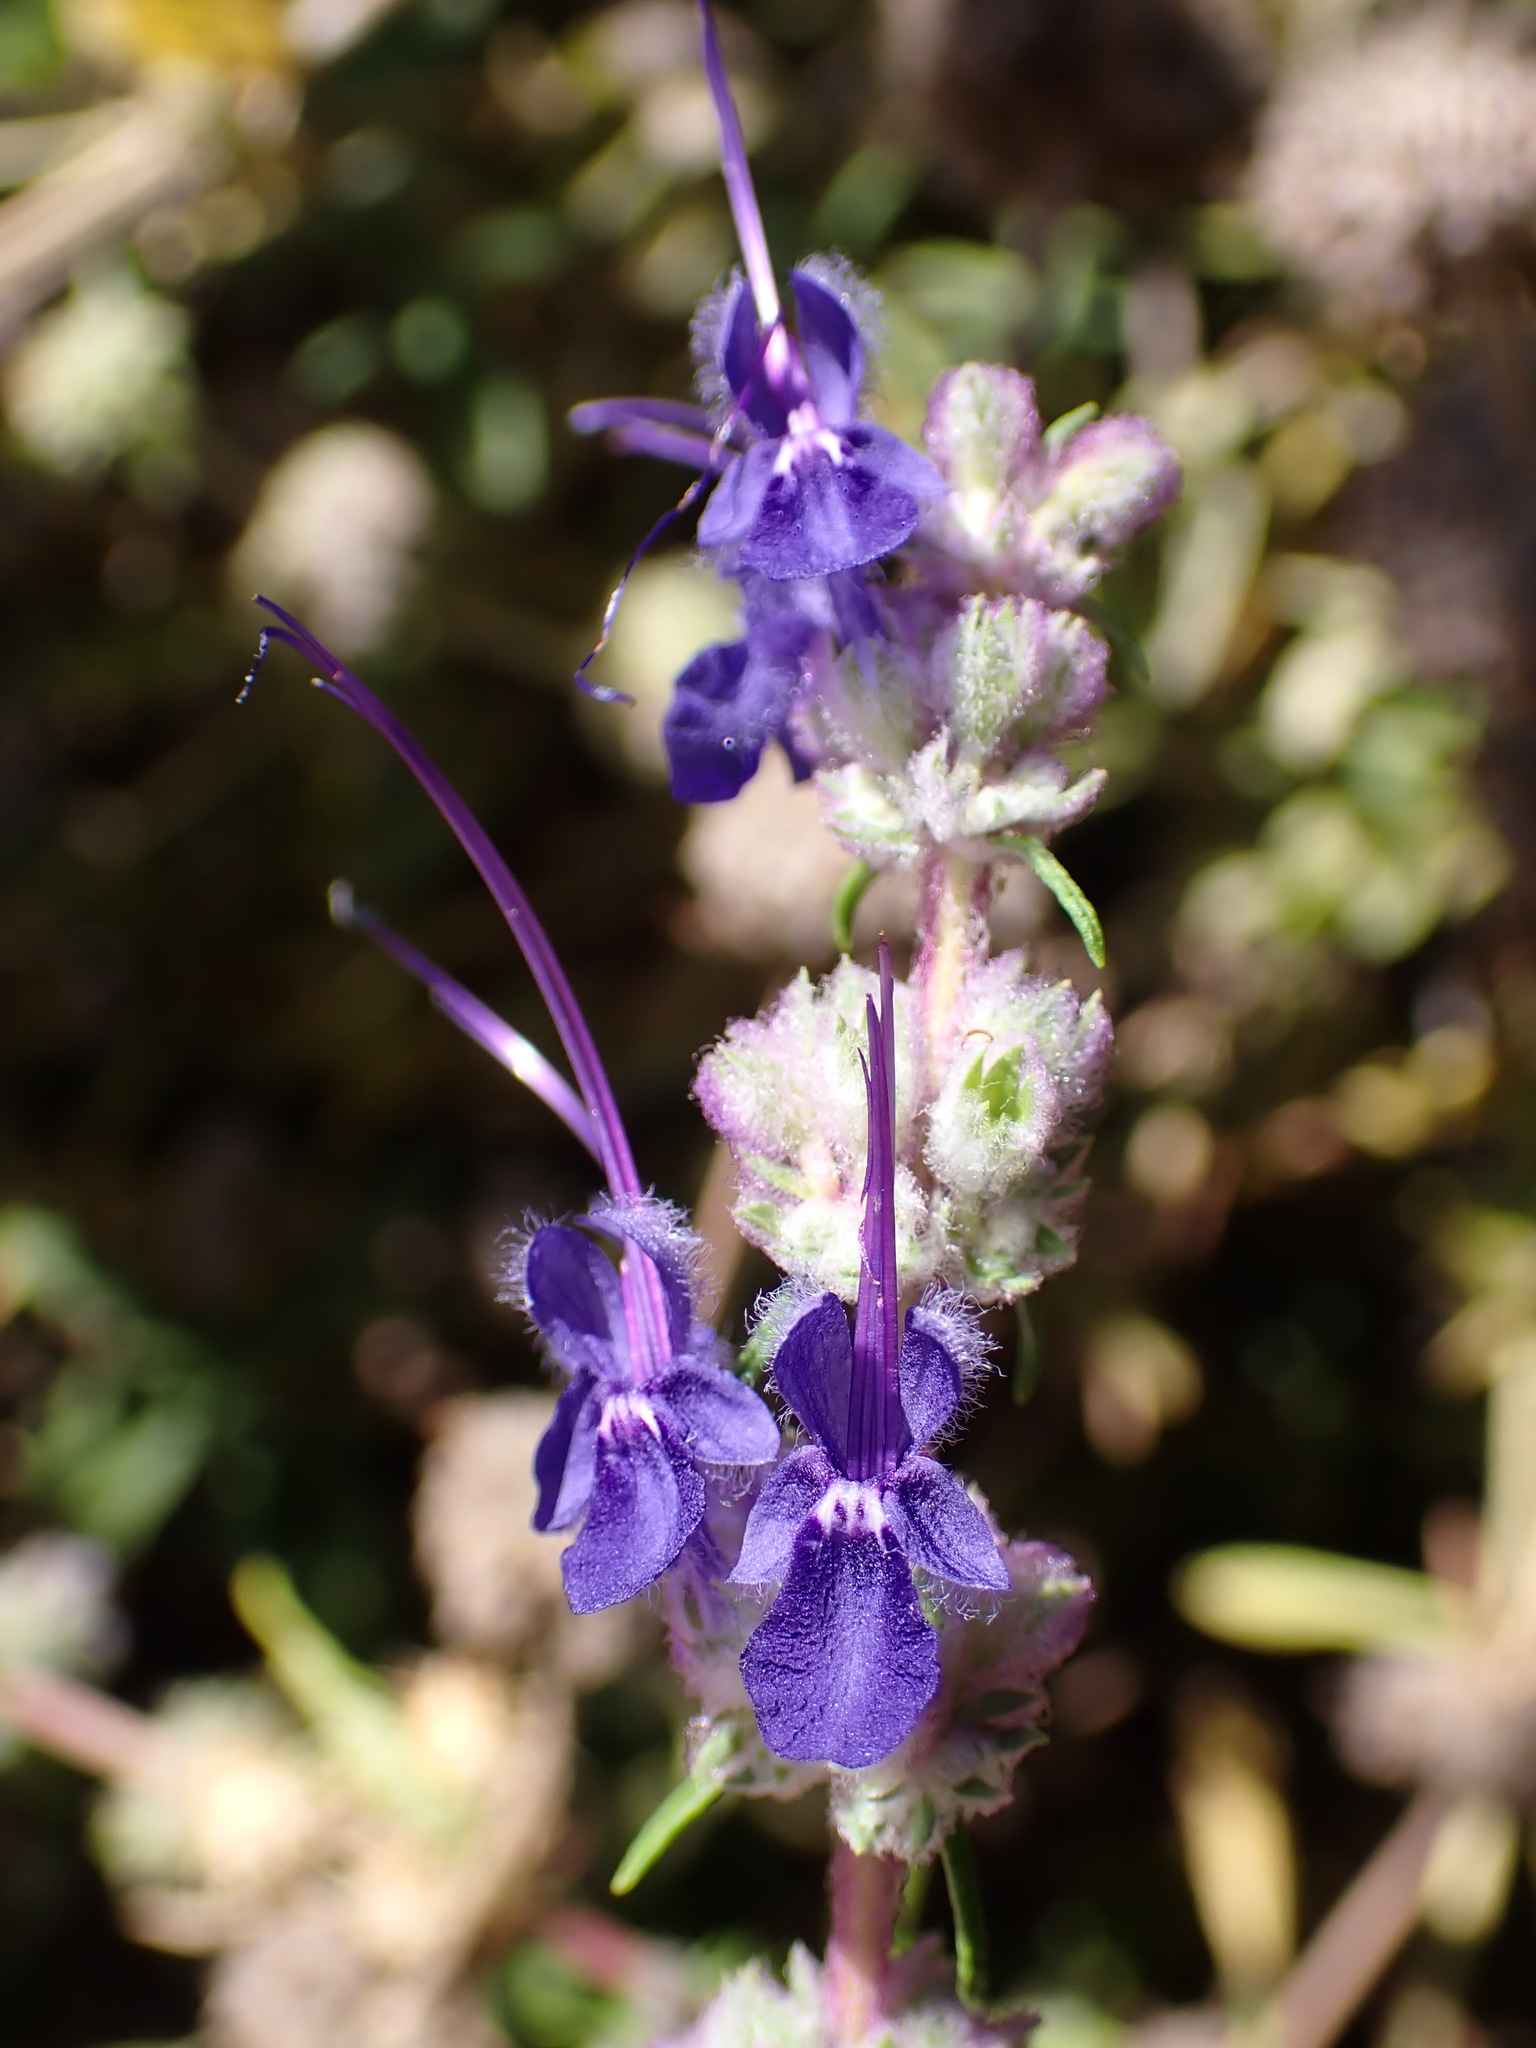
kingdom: Plantae
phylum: Tracheophyta
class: Magnoliopsida
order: Lamiales
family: Lamiaceae
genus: Trichostema
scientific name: Trichostema lanatum
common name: Woolly bluecurls
